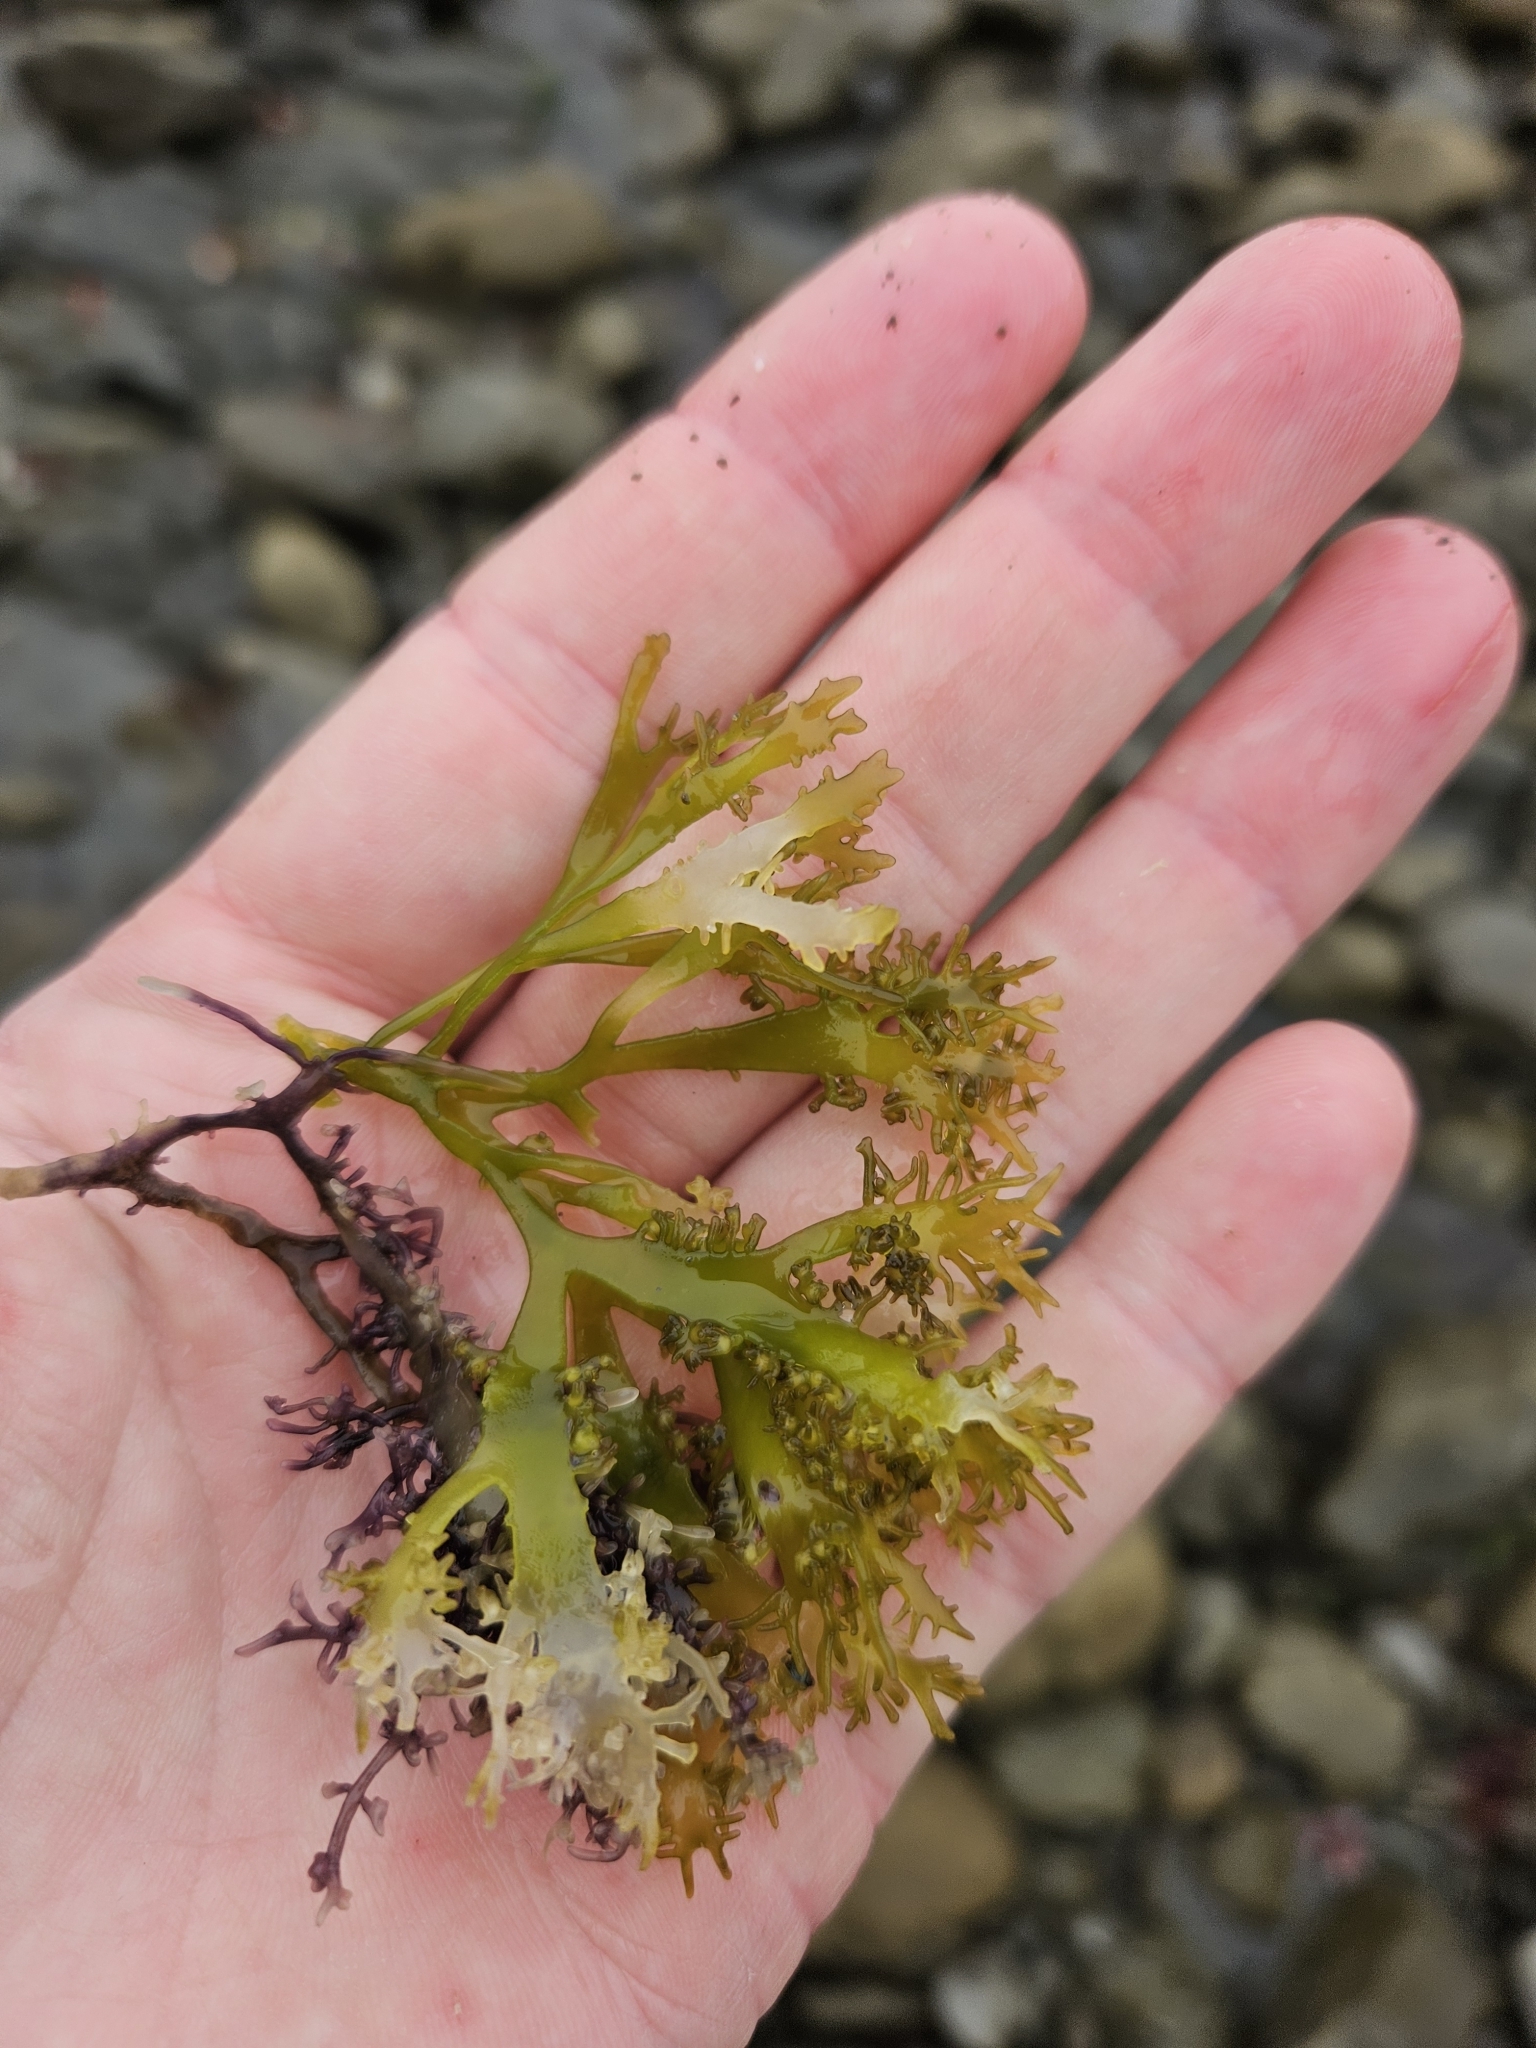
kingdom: Plantae
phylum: Rhodophyta
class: Florideophyceae
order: Gigartinales
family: Gigartinaceae
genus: Sarcothalia
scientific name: Sarcothalia
